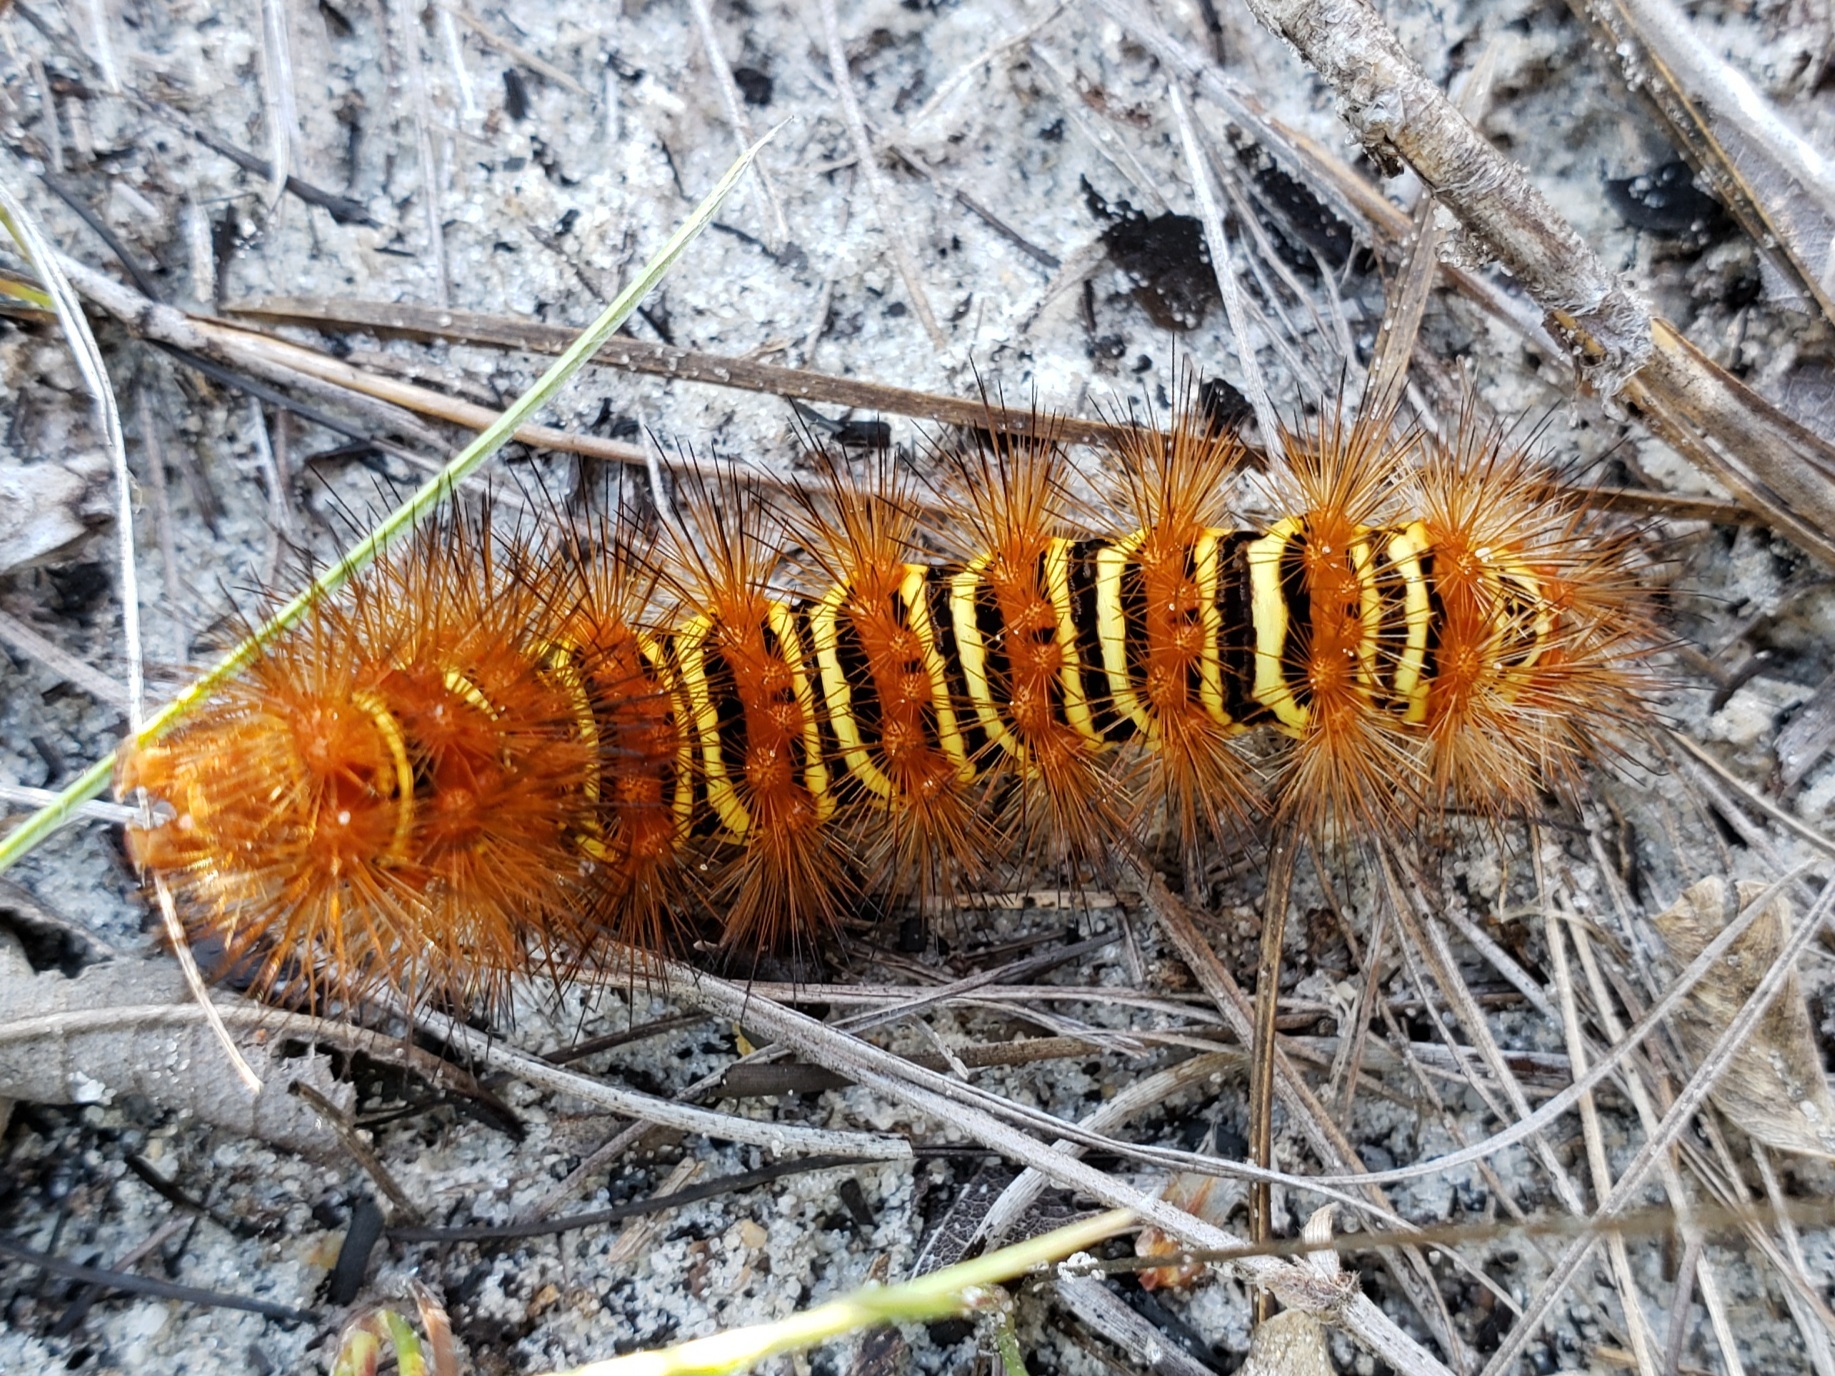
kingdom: Animalia
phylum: Arthropoda
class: Insecta
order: Lepidoptera
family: Erebidae
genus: Seirarctia
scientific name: Seirarctia echo
